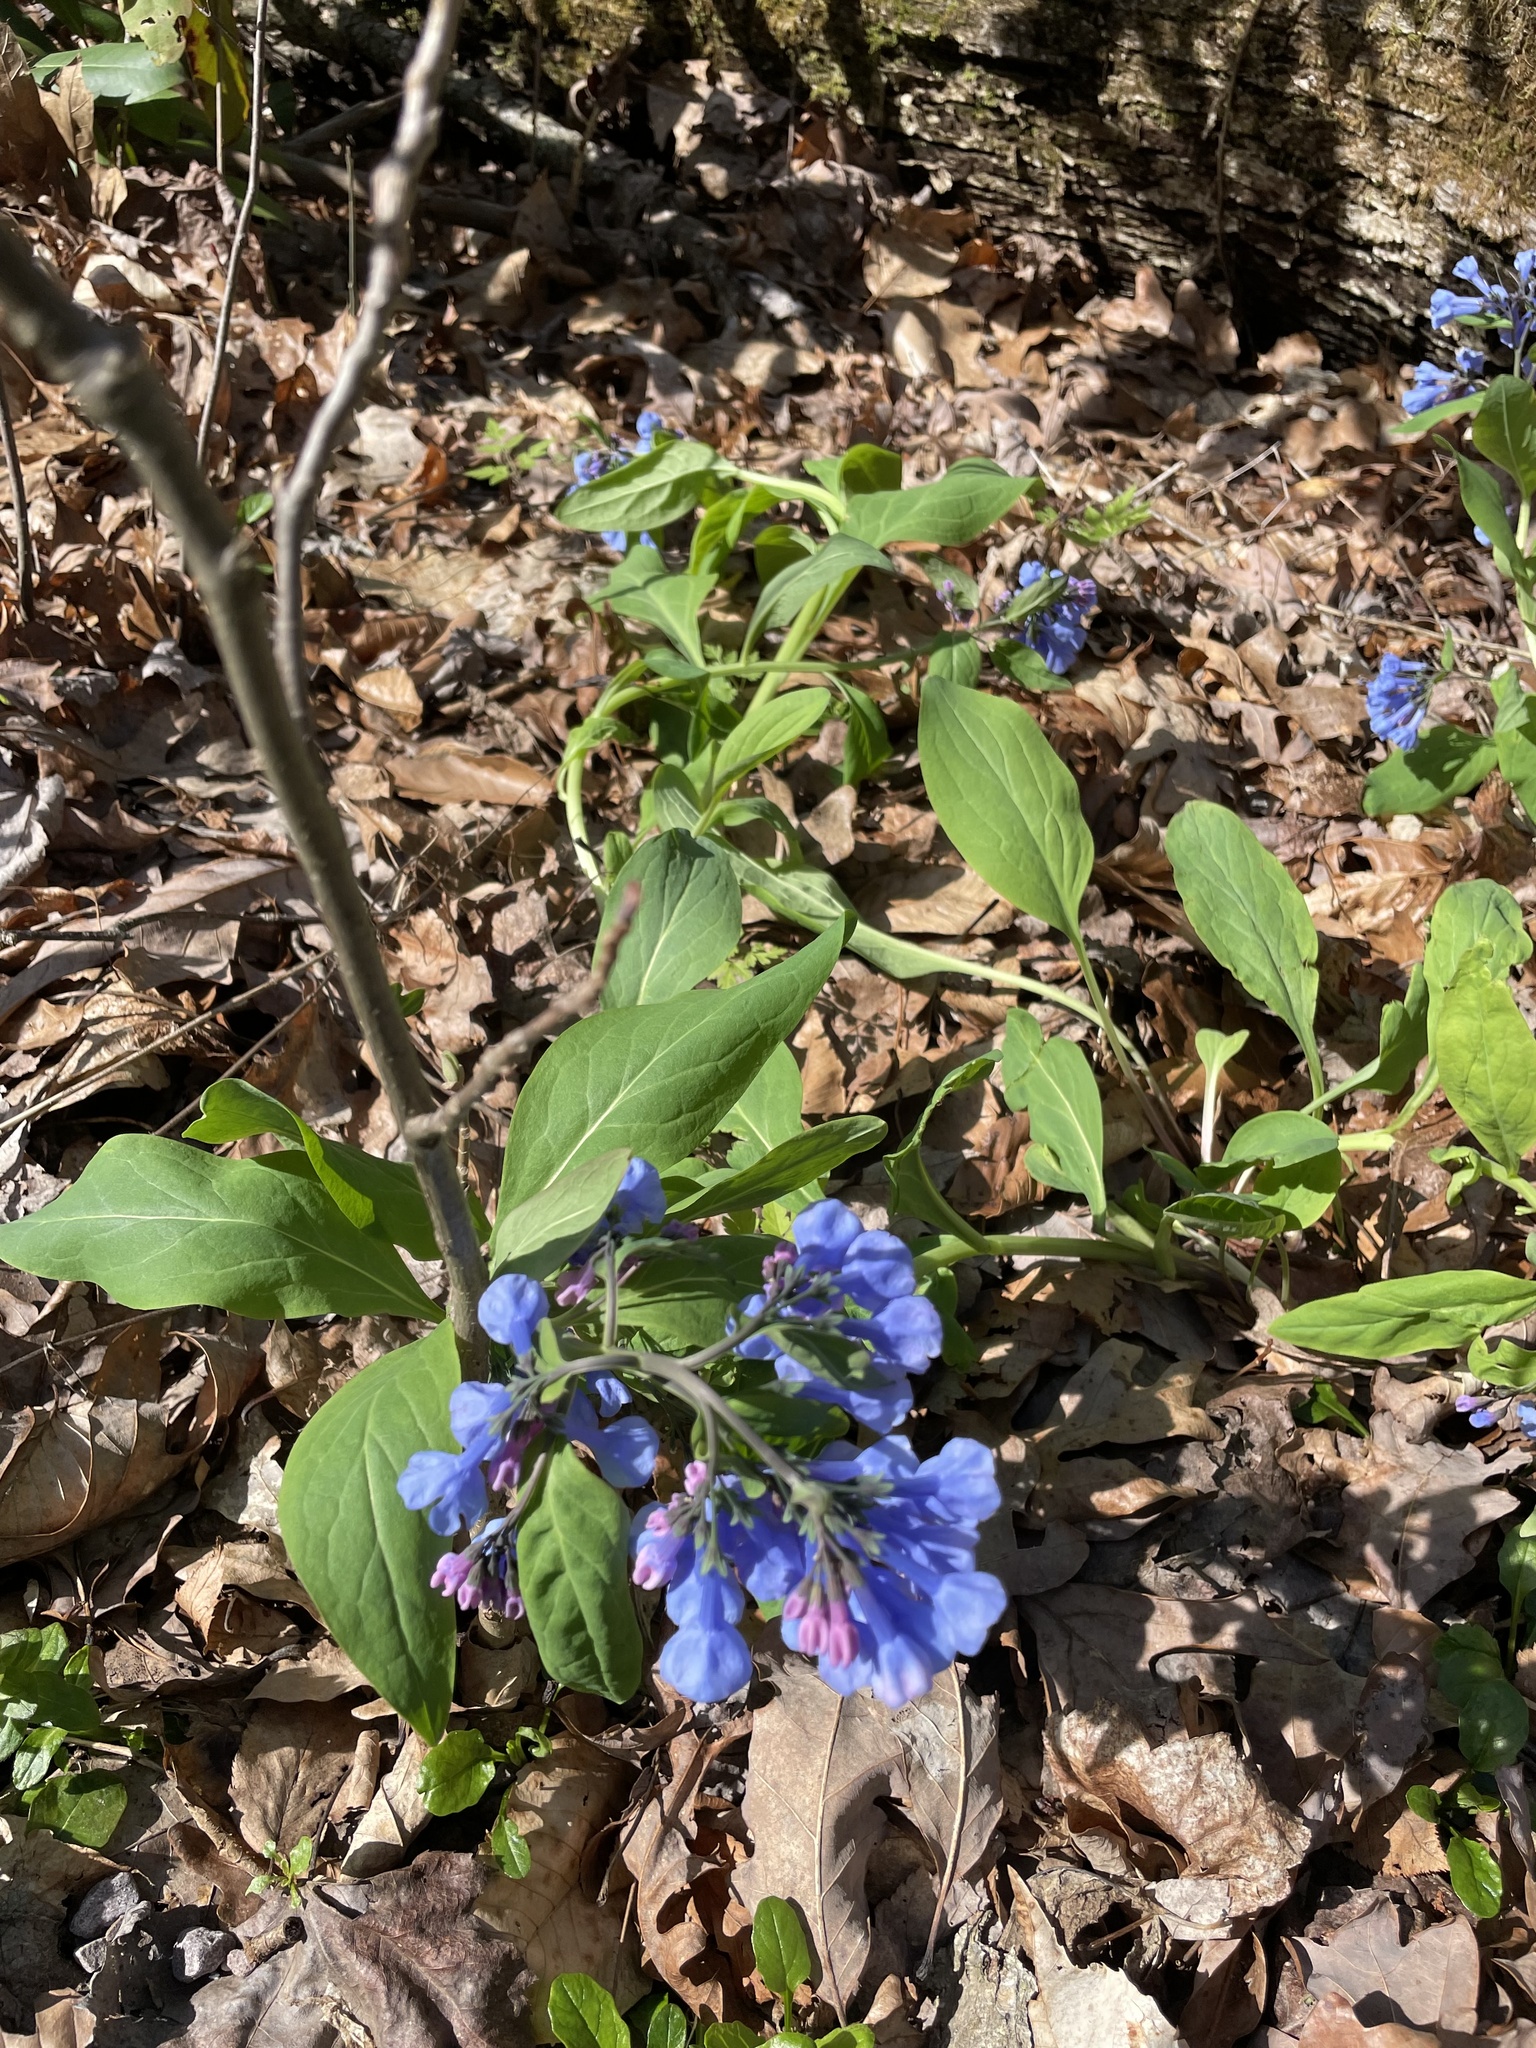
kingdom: Plantae
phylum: Tracheophyta
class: Magnoliopsida
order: Boraginales
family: Boraginaceae
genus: Mertensia
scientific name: Mertensia virginica
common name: Virginia bluebells
